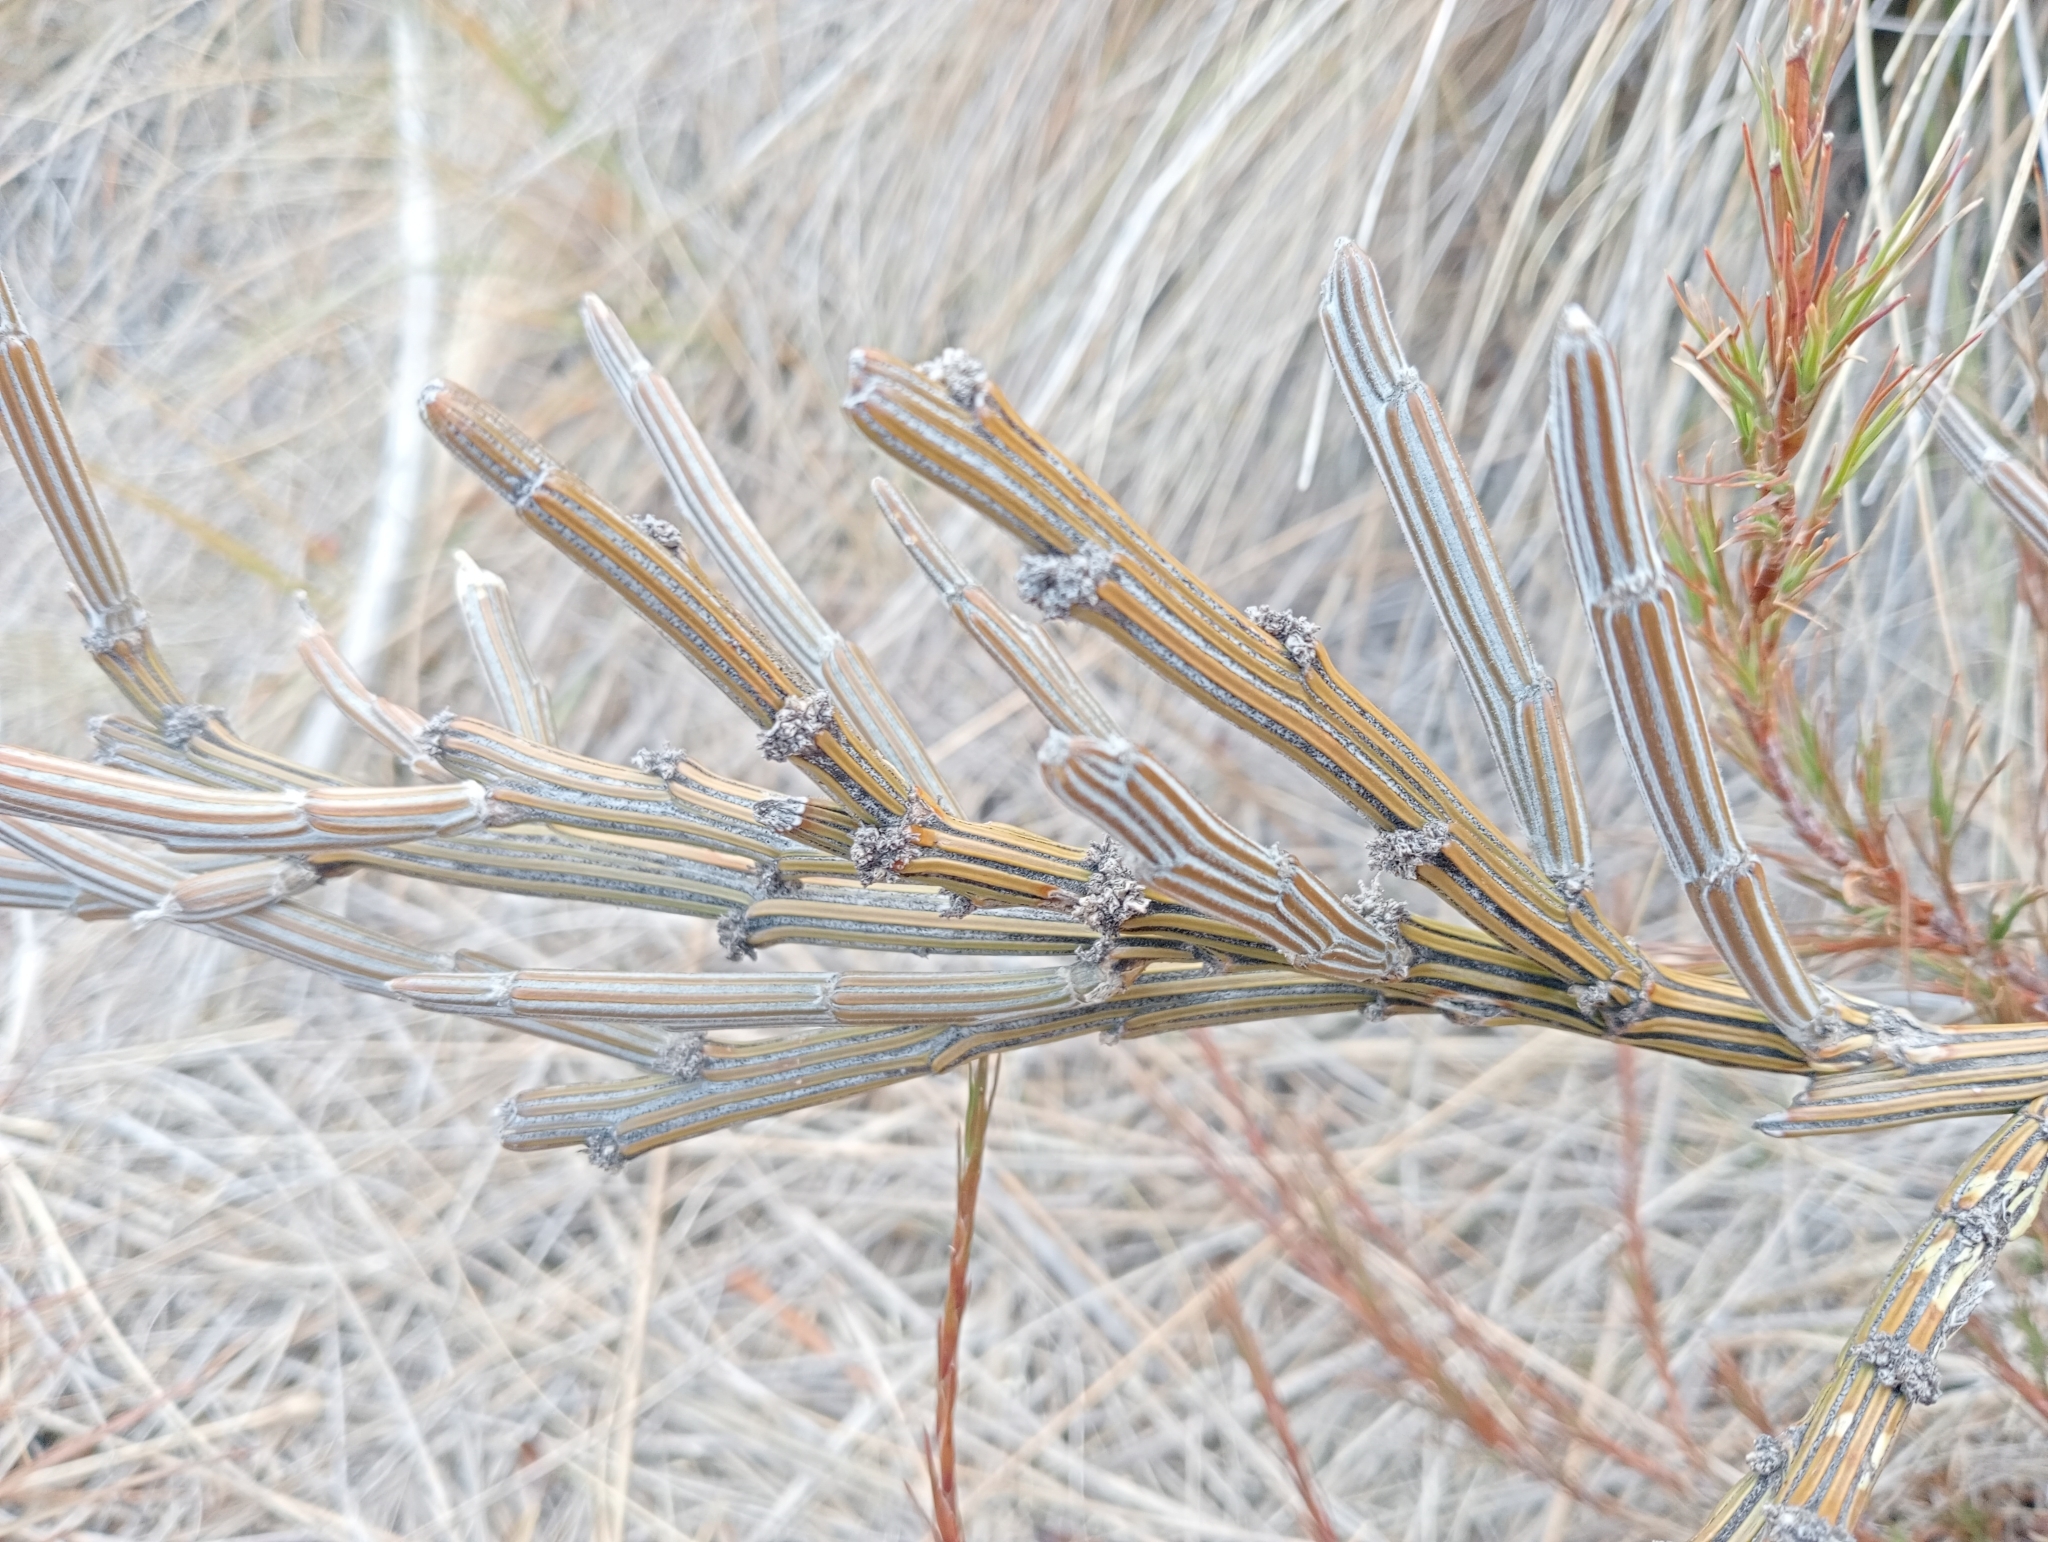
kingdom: Plantae
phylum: Tracheophyta
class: Magnoliopsida
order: Fabales
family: Fabaceae
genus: Carmichaelia
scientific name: Carmichaelia crassicaulis
